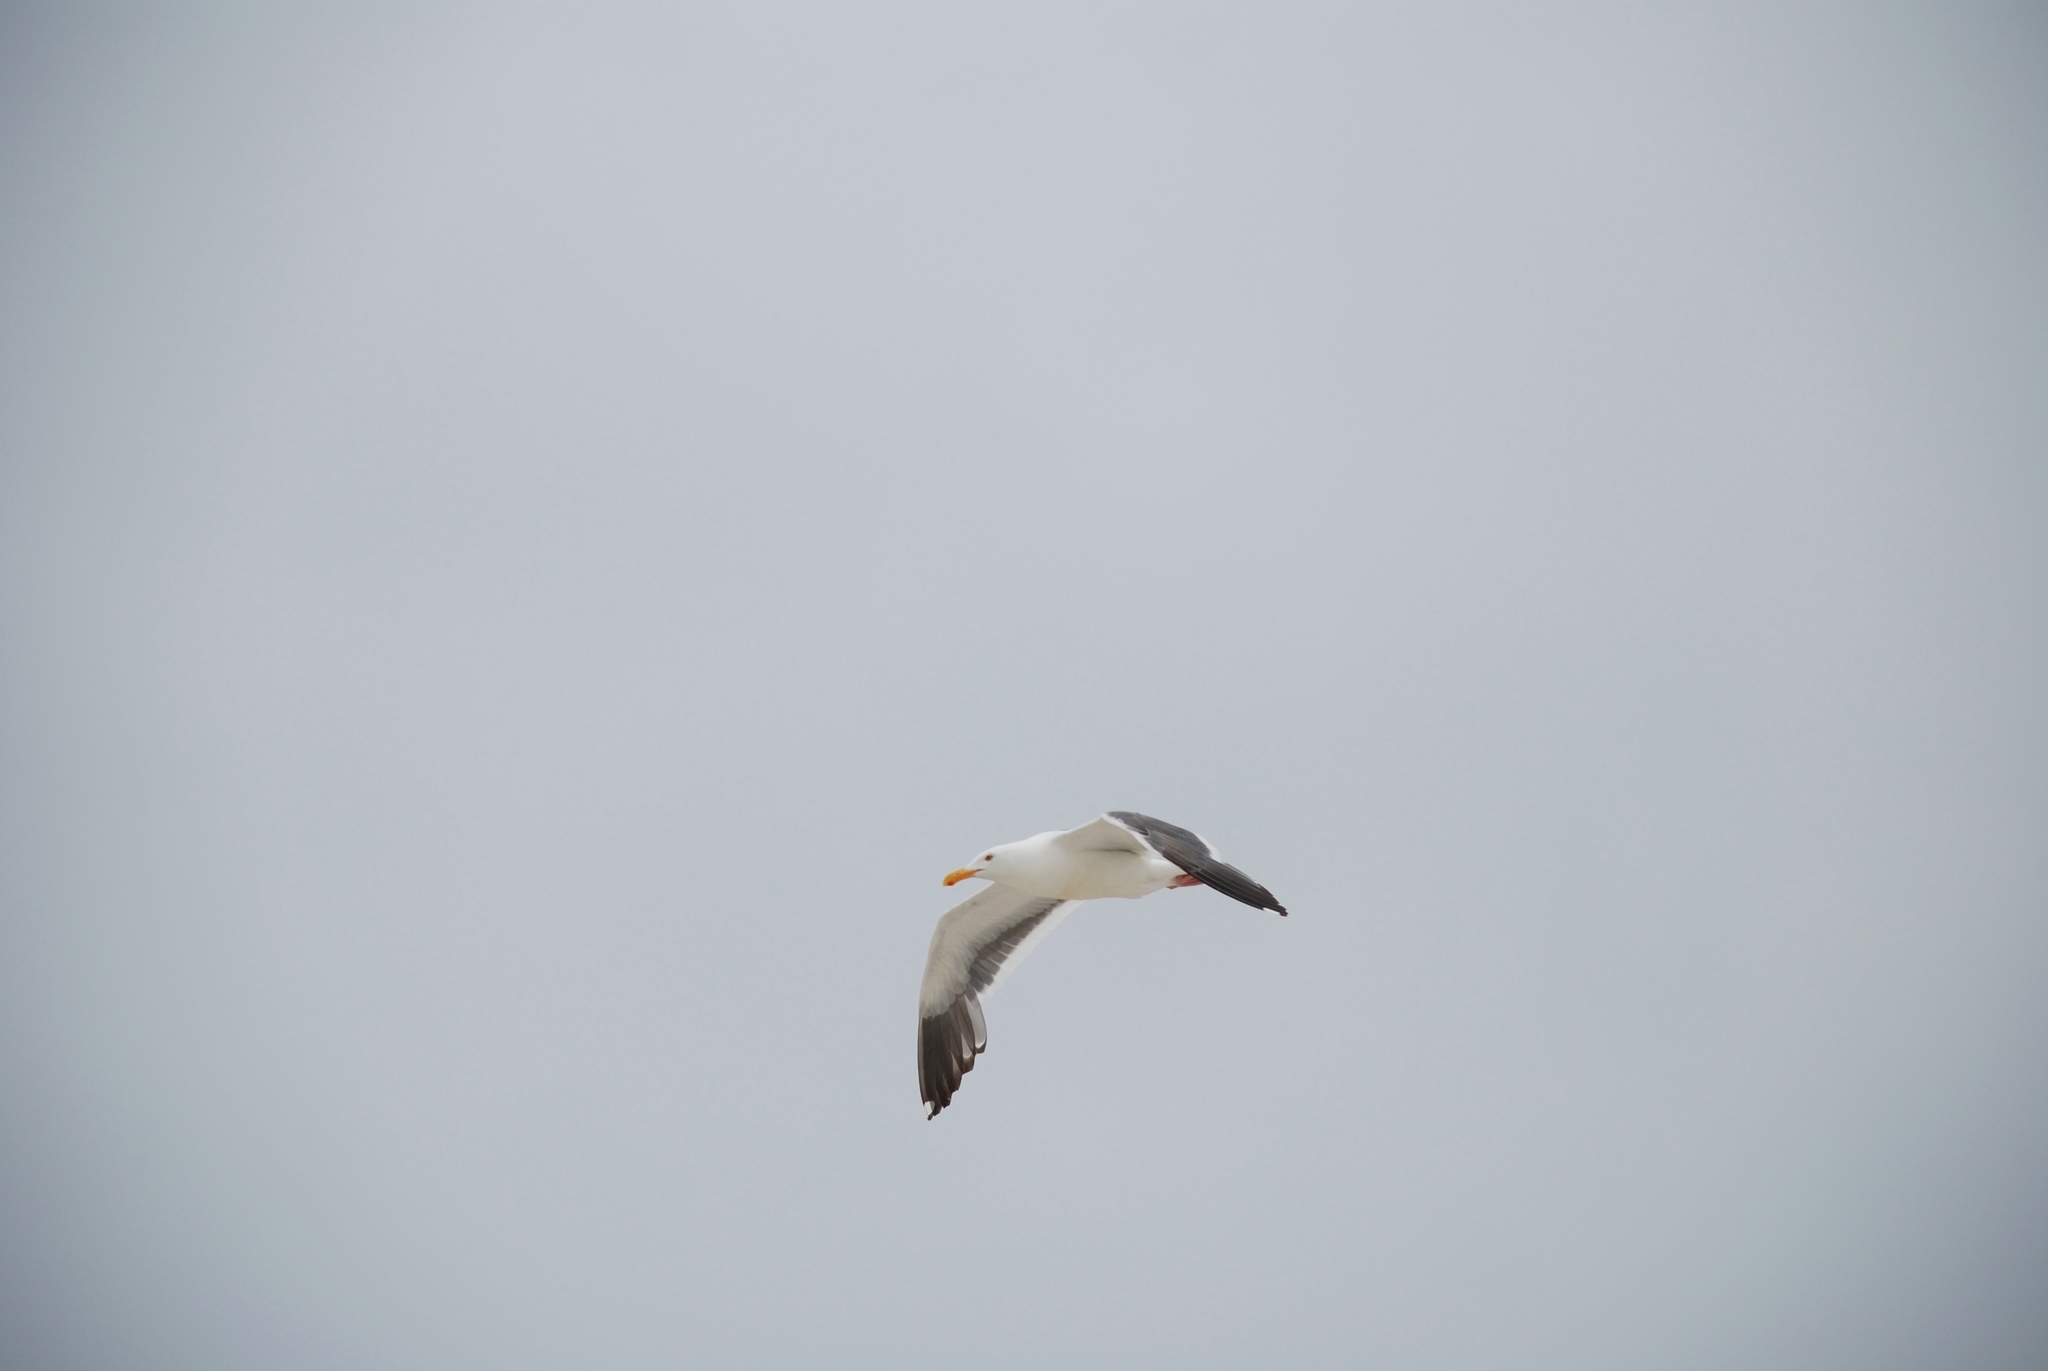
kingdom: Animalia
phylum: Chordata
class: Aves
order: Charadriiformes
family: Laridae
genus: Larus
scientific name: Larus occidentalis
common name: Western gull
